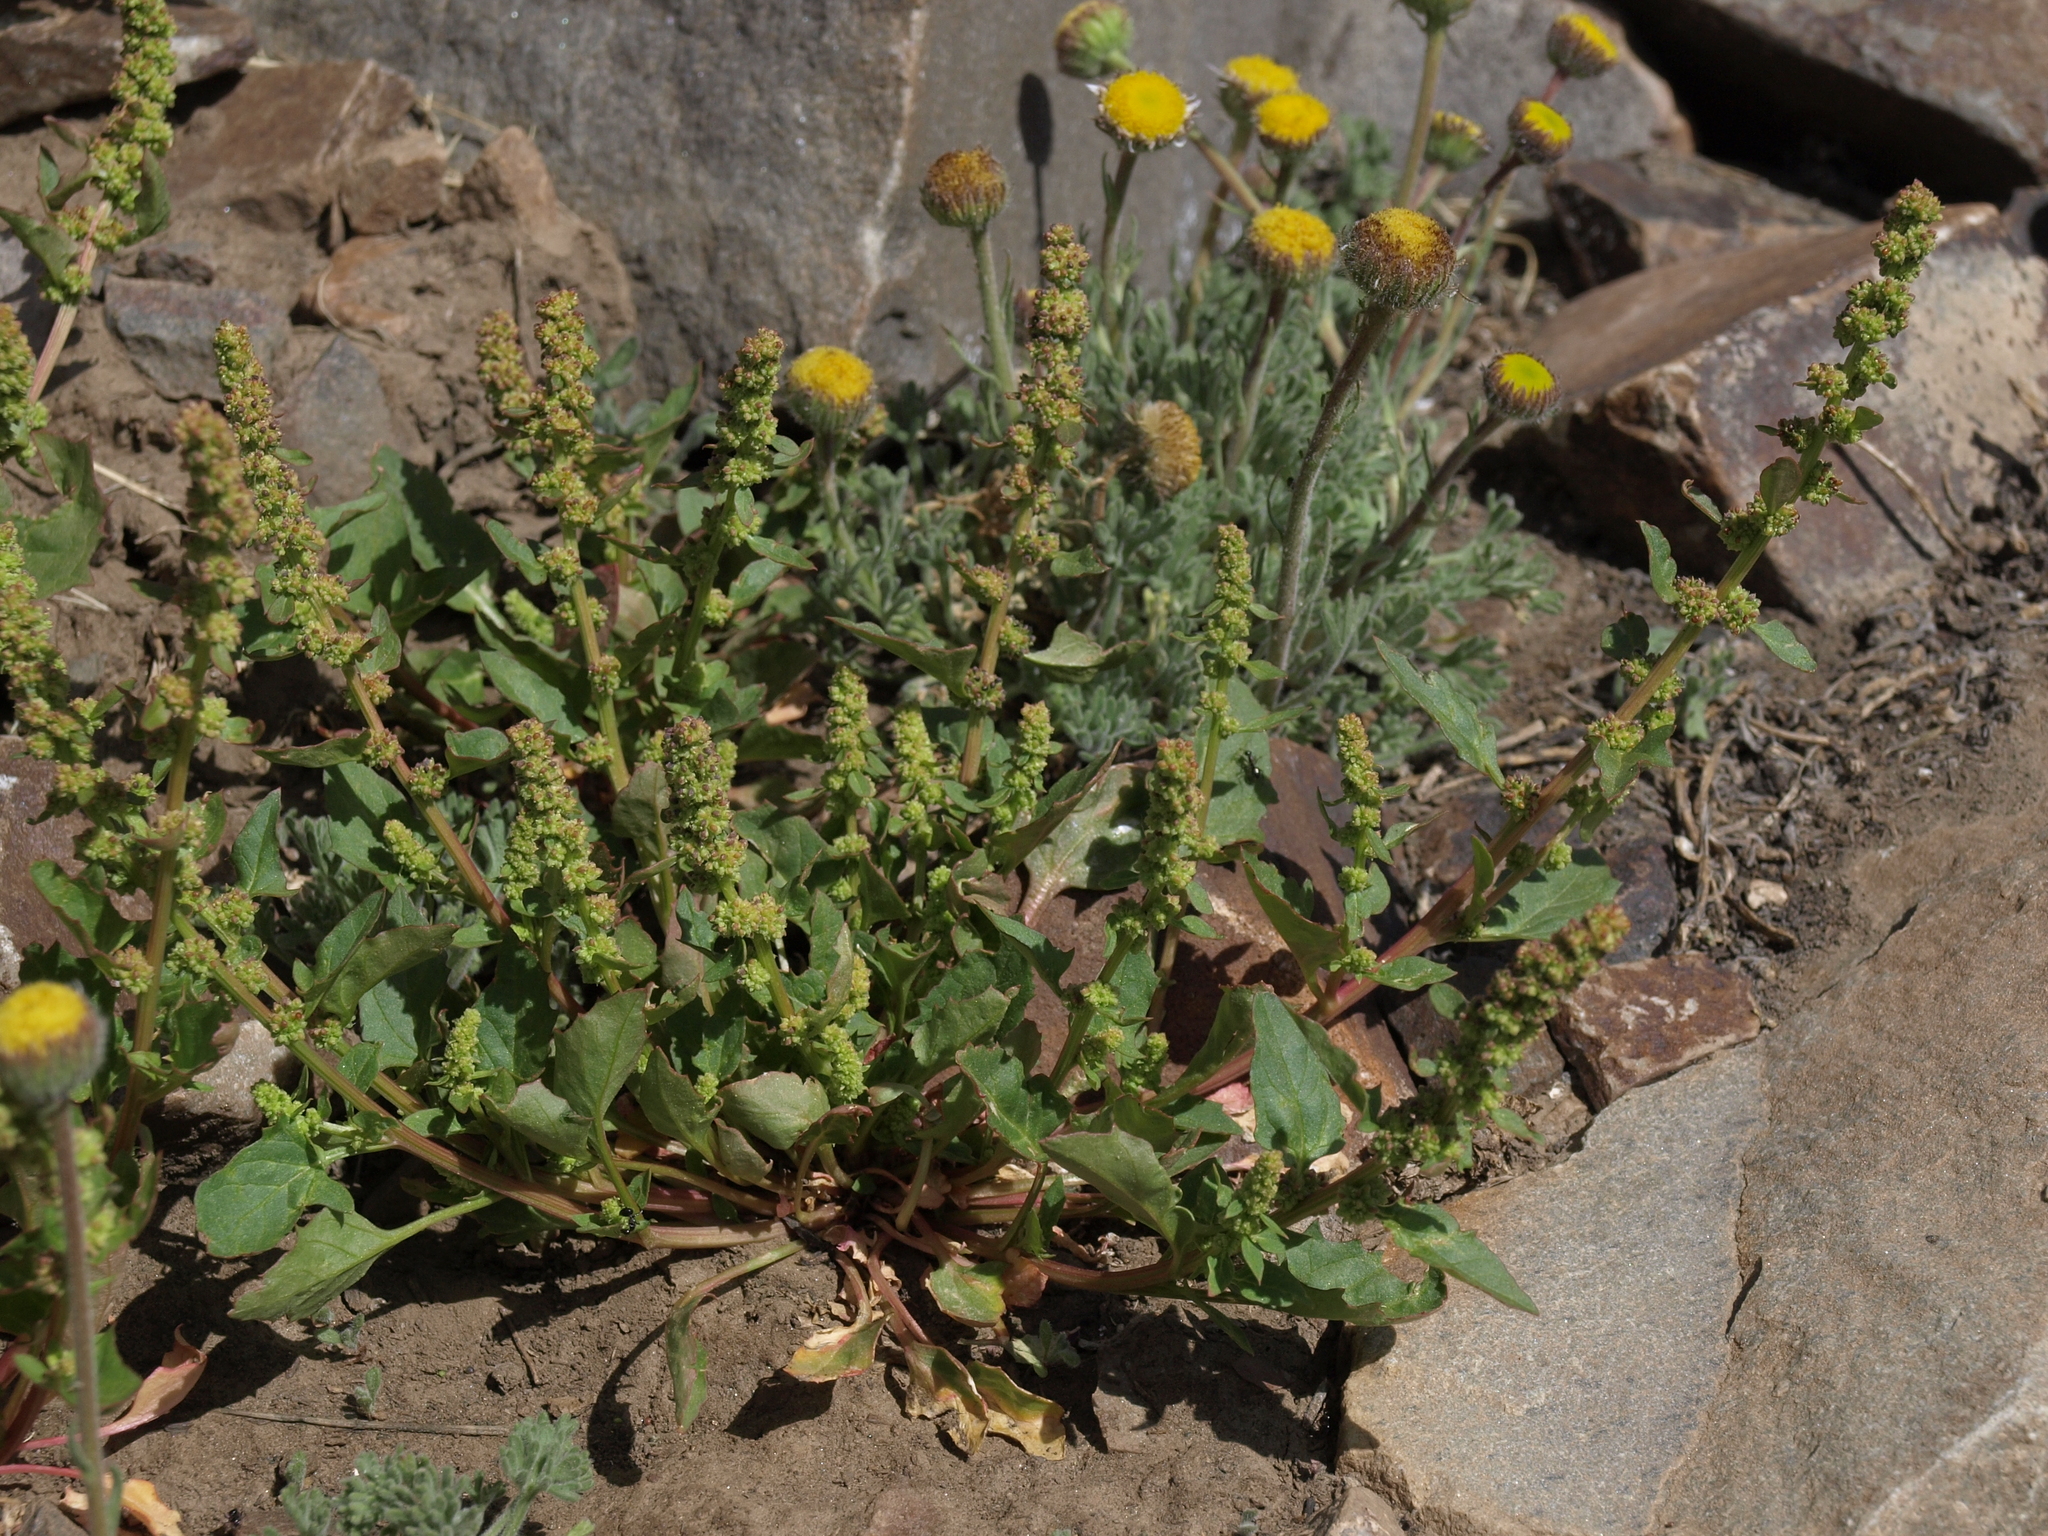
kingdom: Plantae
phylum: Tracheophyta
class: Magnoliopsida
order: Caryophyllales
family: Amaranthaceae
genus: Blitum
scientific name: Blitum capitatum
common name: Strawberry-blight
